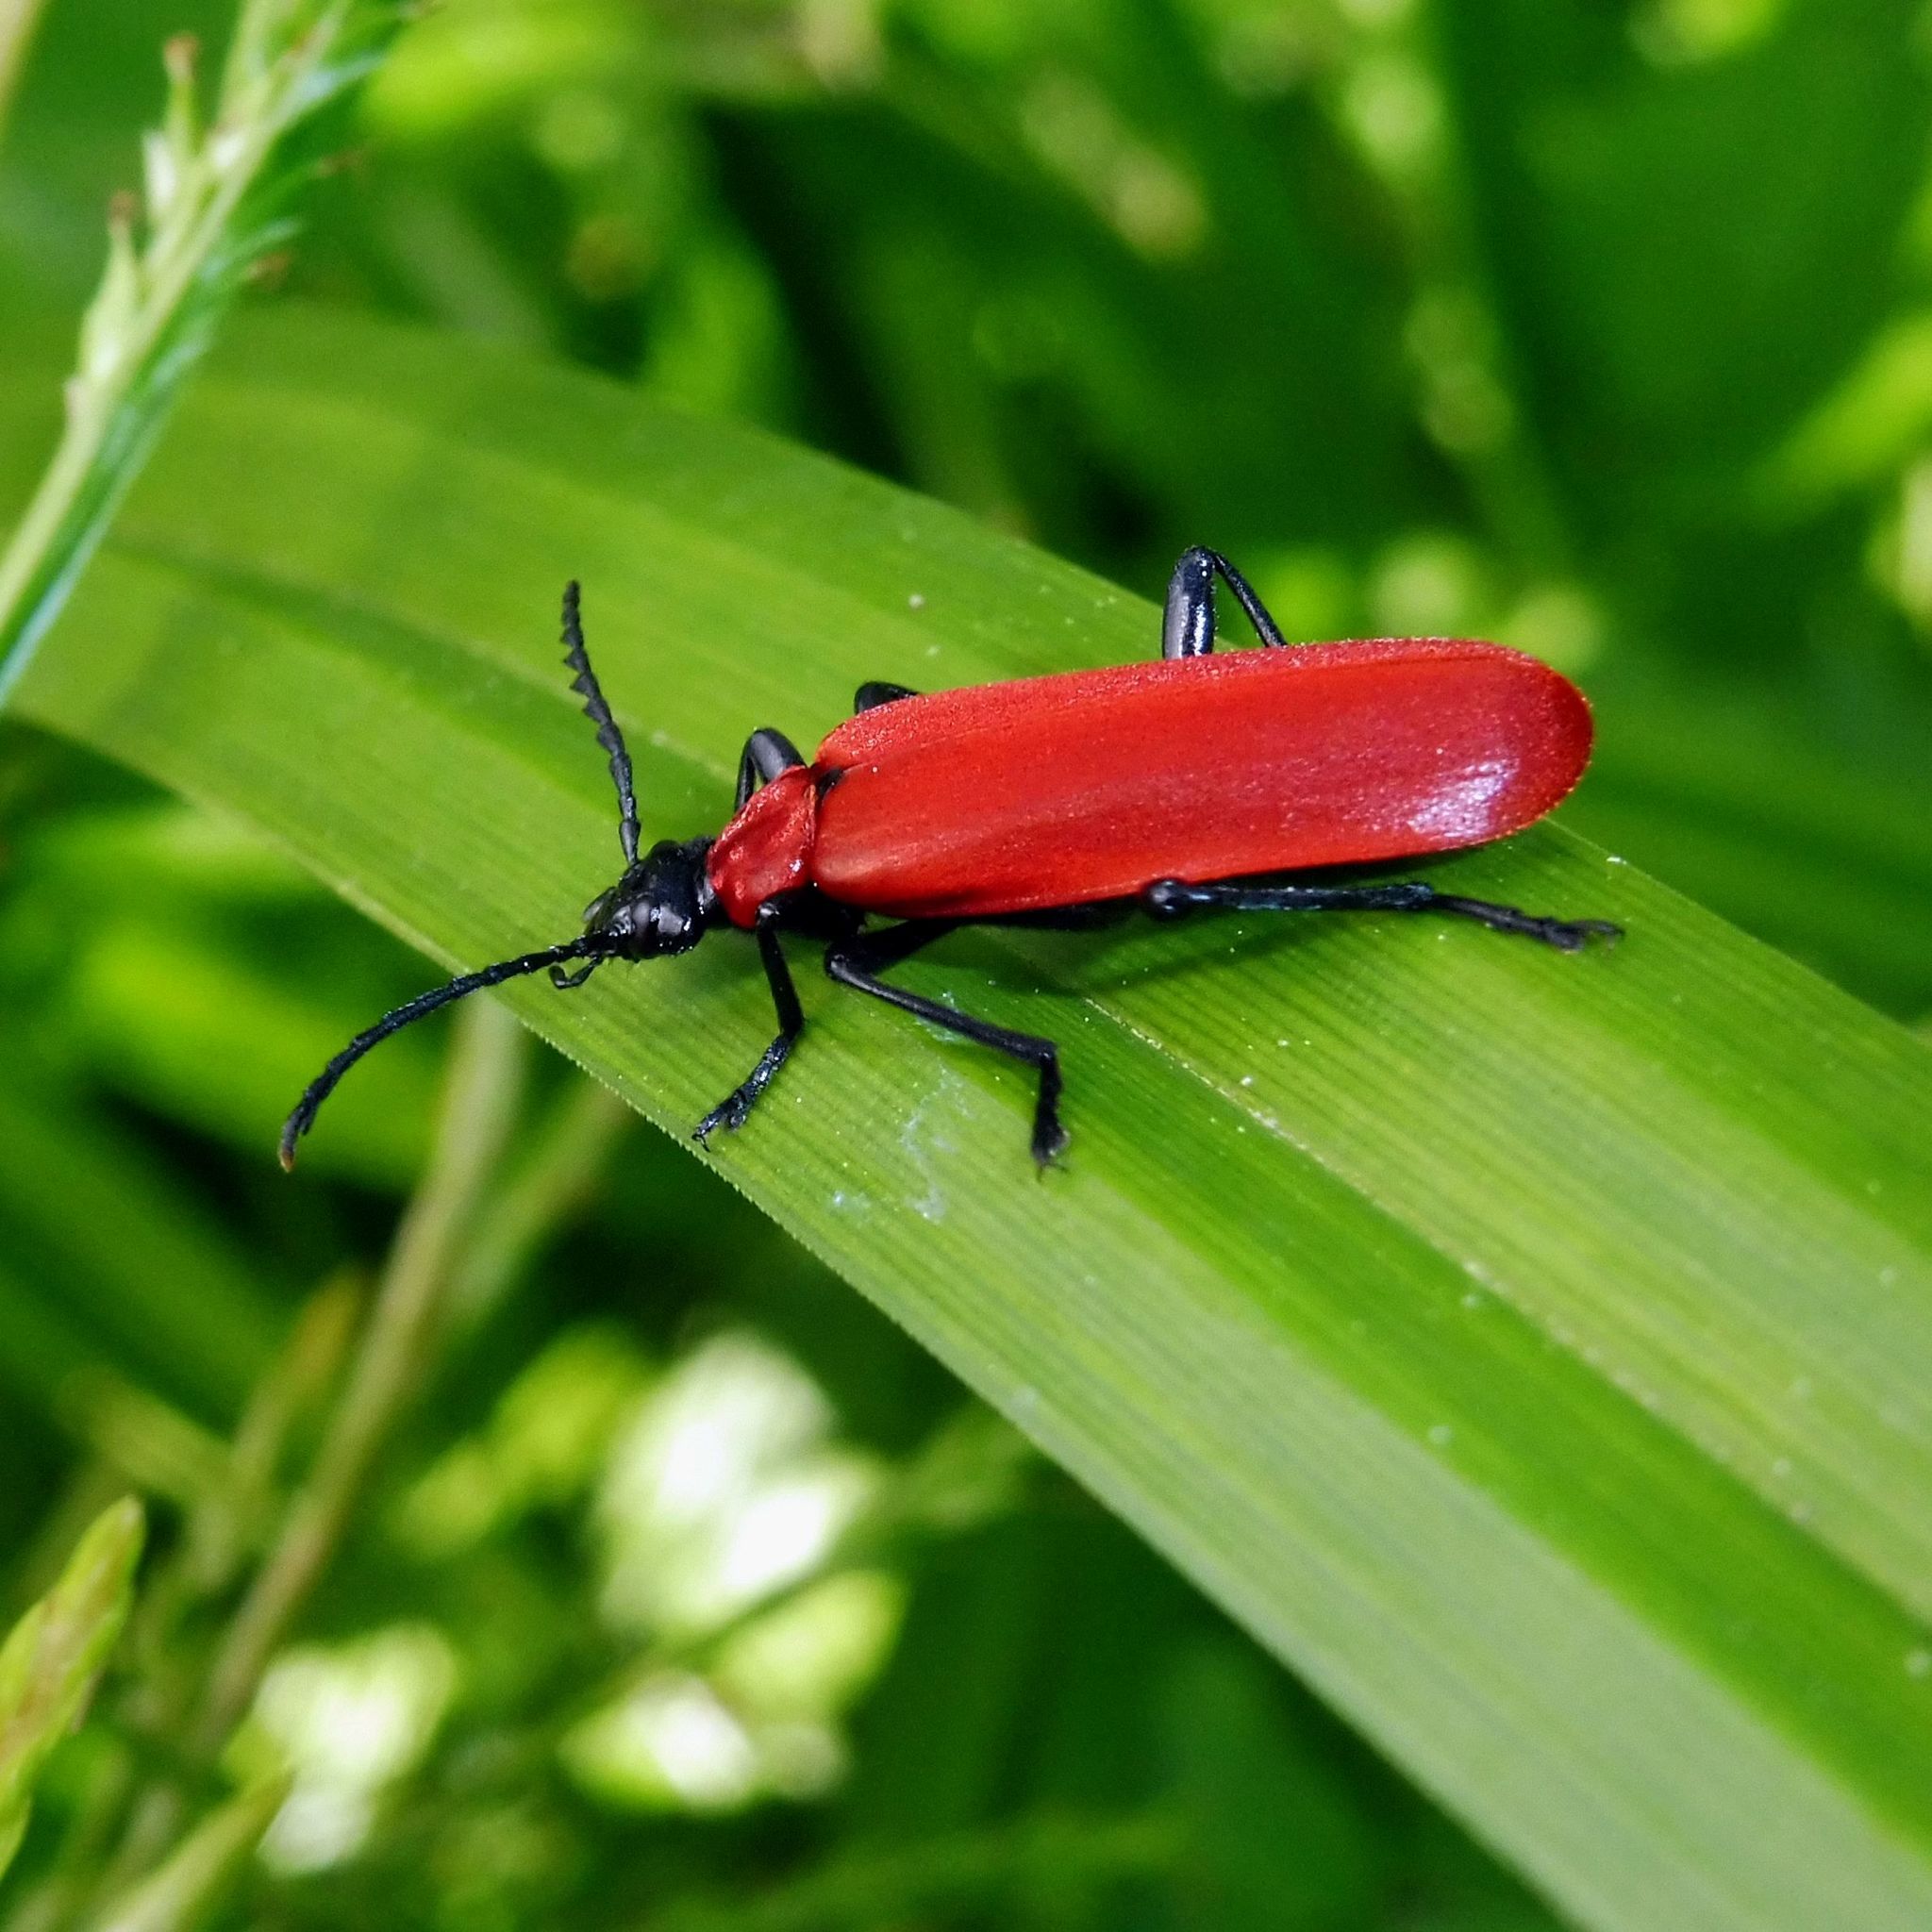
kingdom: Animalia
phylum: Arthropoda
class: Insecta
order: Coleoptera
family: Pyrochroidae
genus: Pyrochroa
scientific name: Pyrochroa coccinea
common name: Black-headed cardinal beetle
